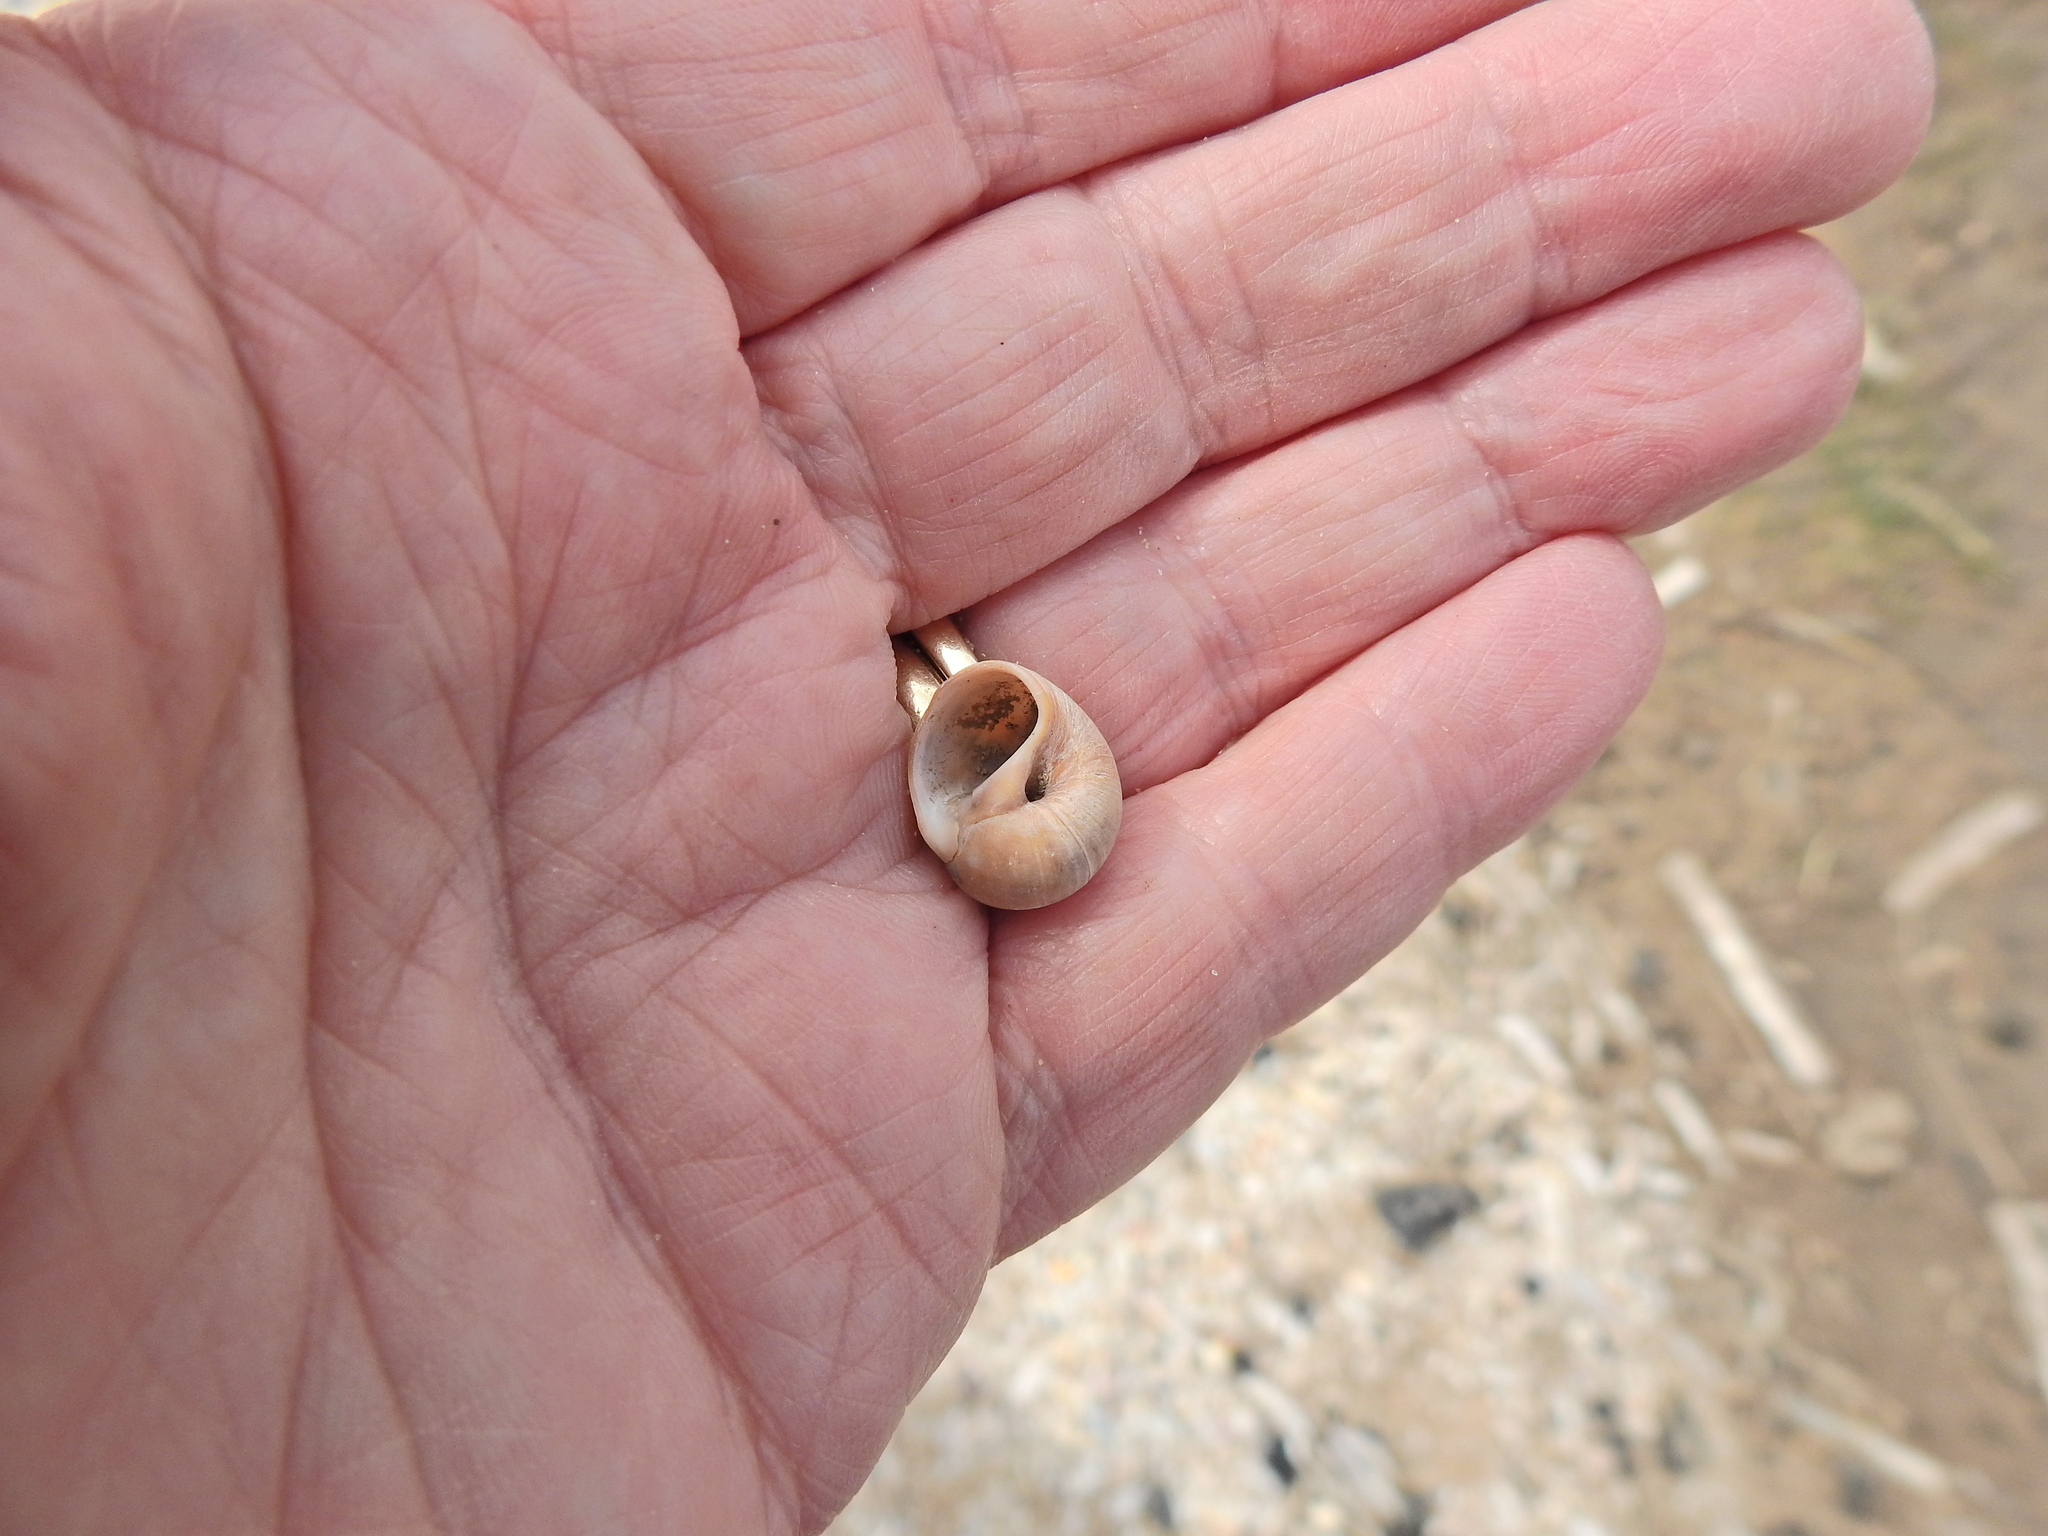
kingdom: Animalia
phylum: Mollusca
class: Gastropoda
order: Littorinimorpha
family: Naticidae
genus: Euspira
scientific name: Euspira nitida
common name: Alder's necklace shell
